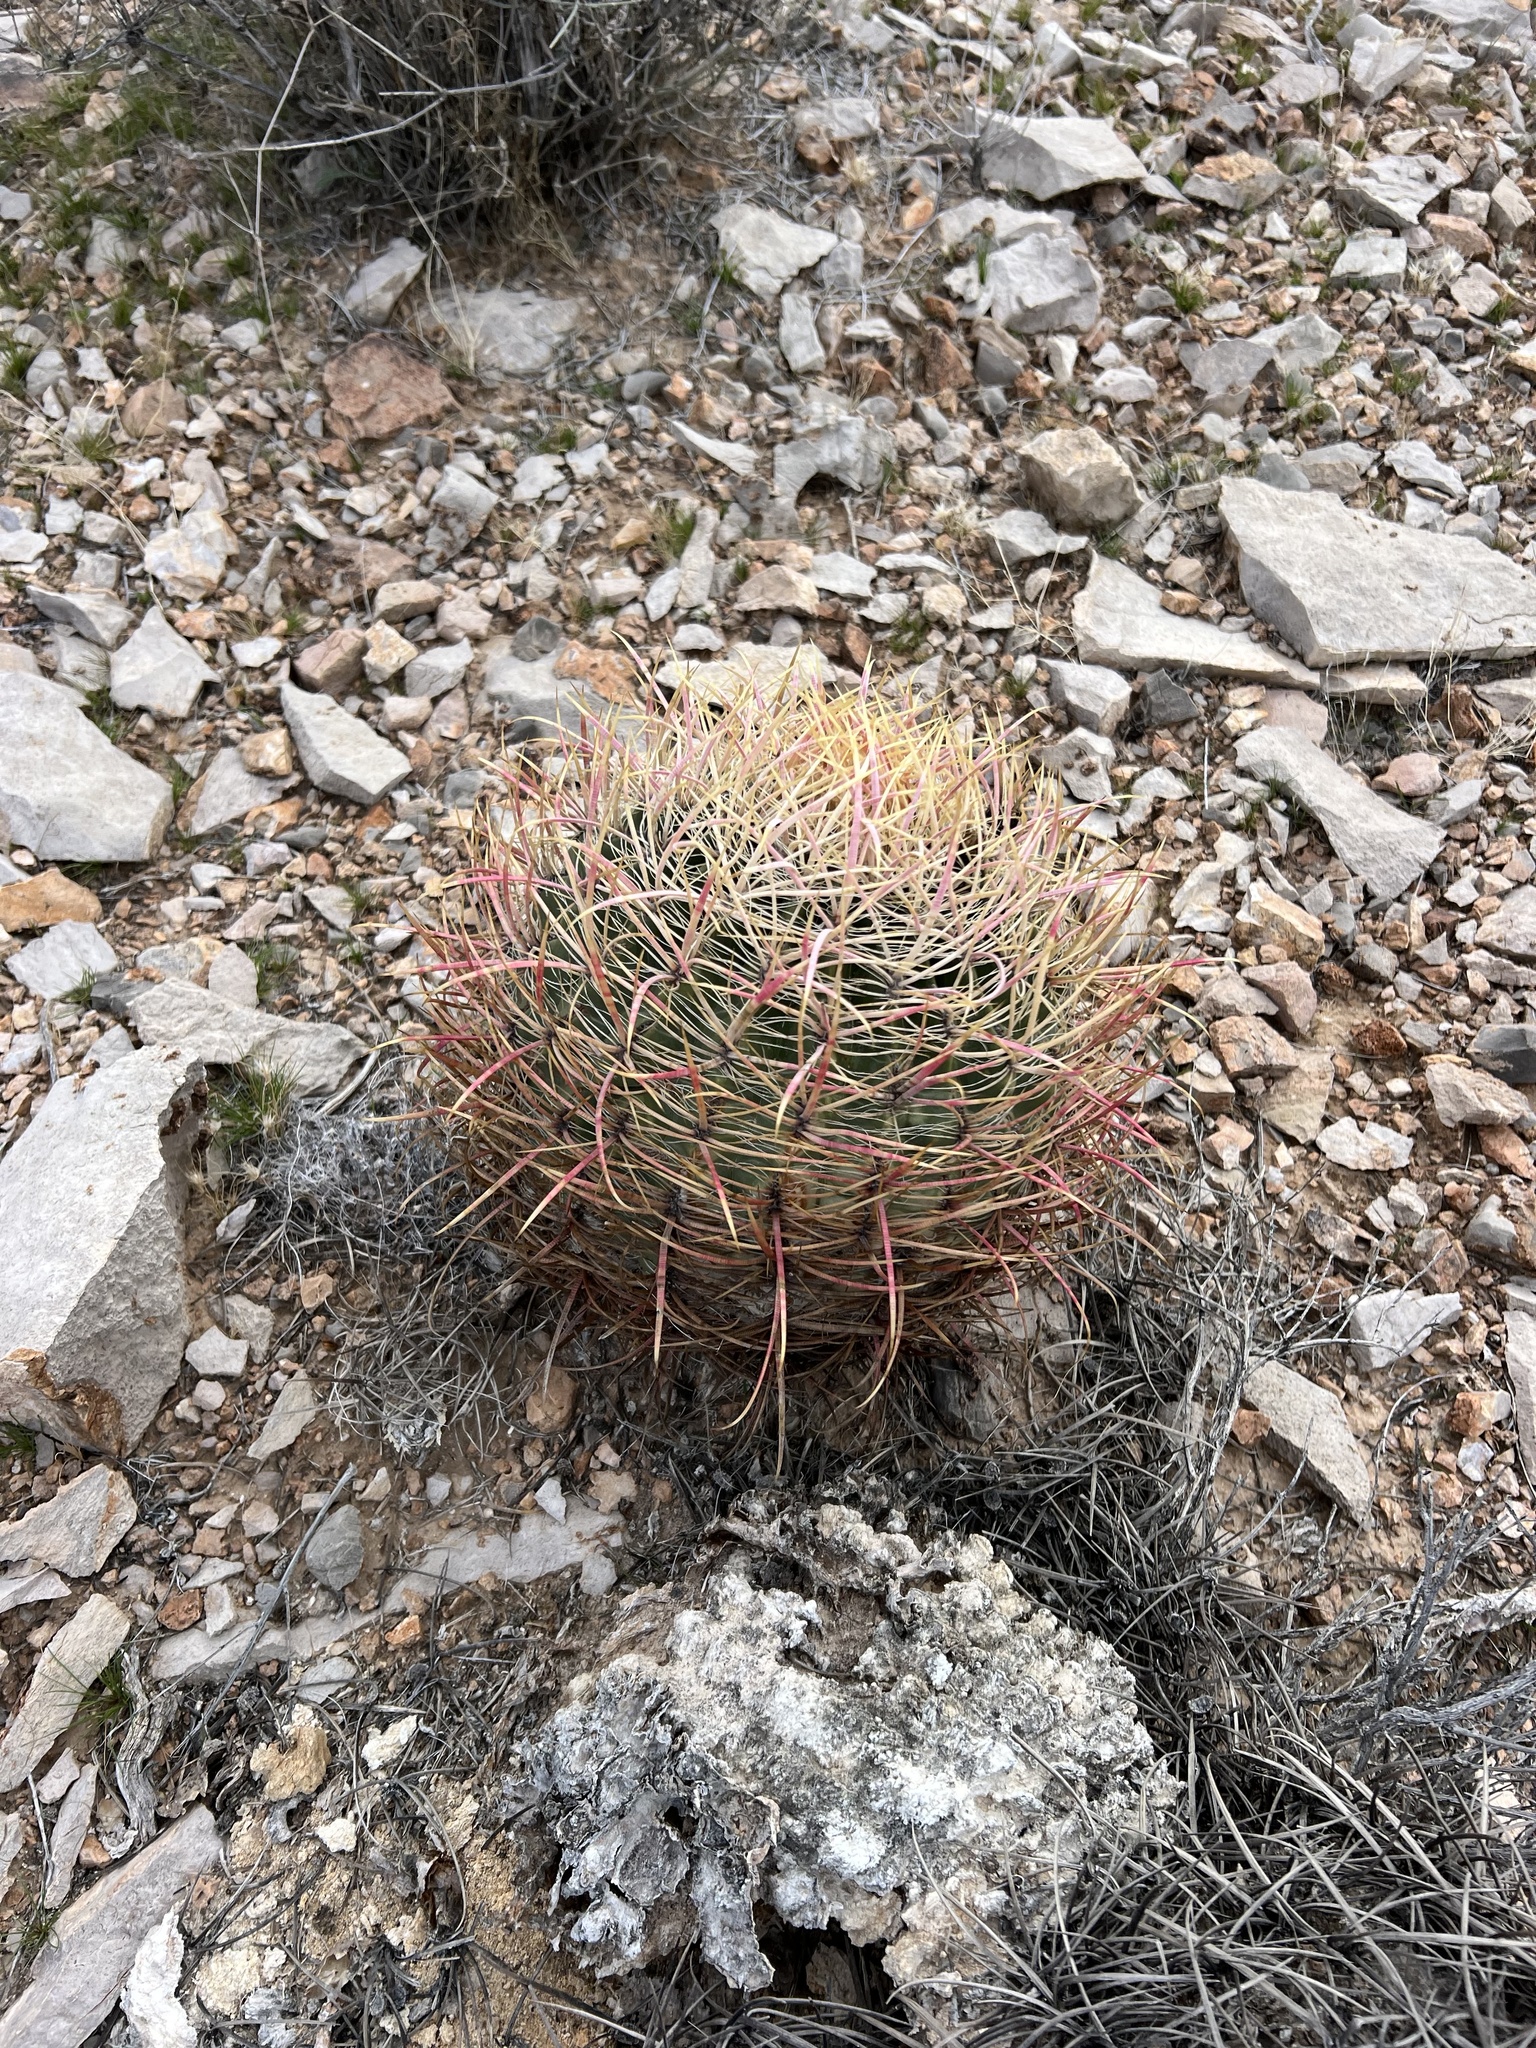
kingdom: Plantae
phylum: Tracheophyta
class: Magnoliopsida
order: Caryophyllales
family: Cactaceae
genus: Ferocactus
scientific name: Ferocactus cylindraceus
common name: California barrel cactus
